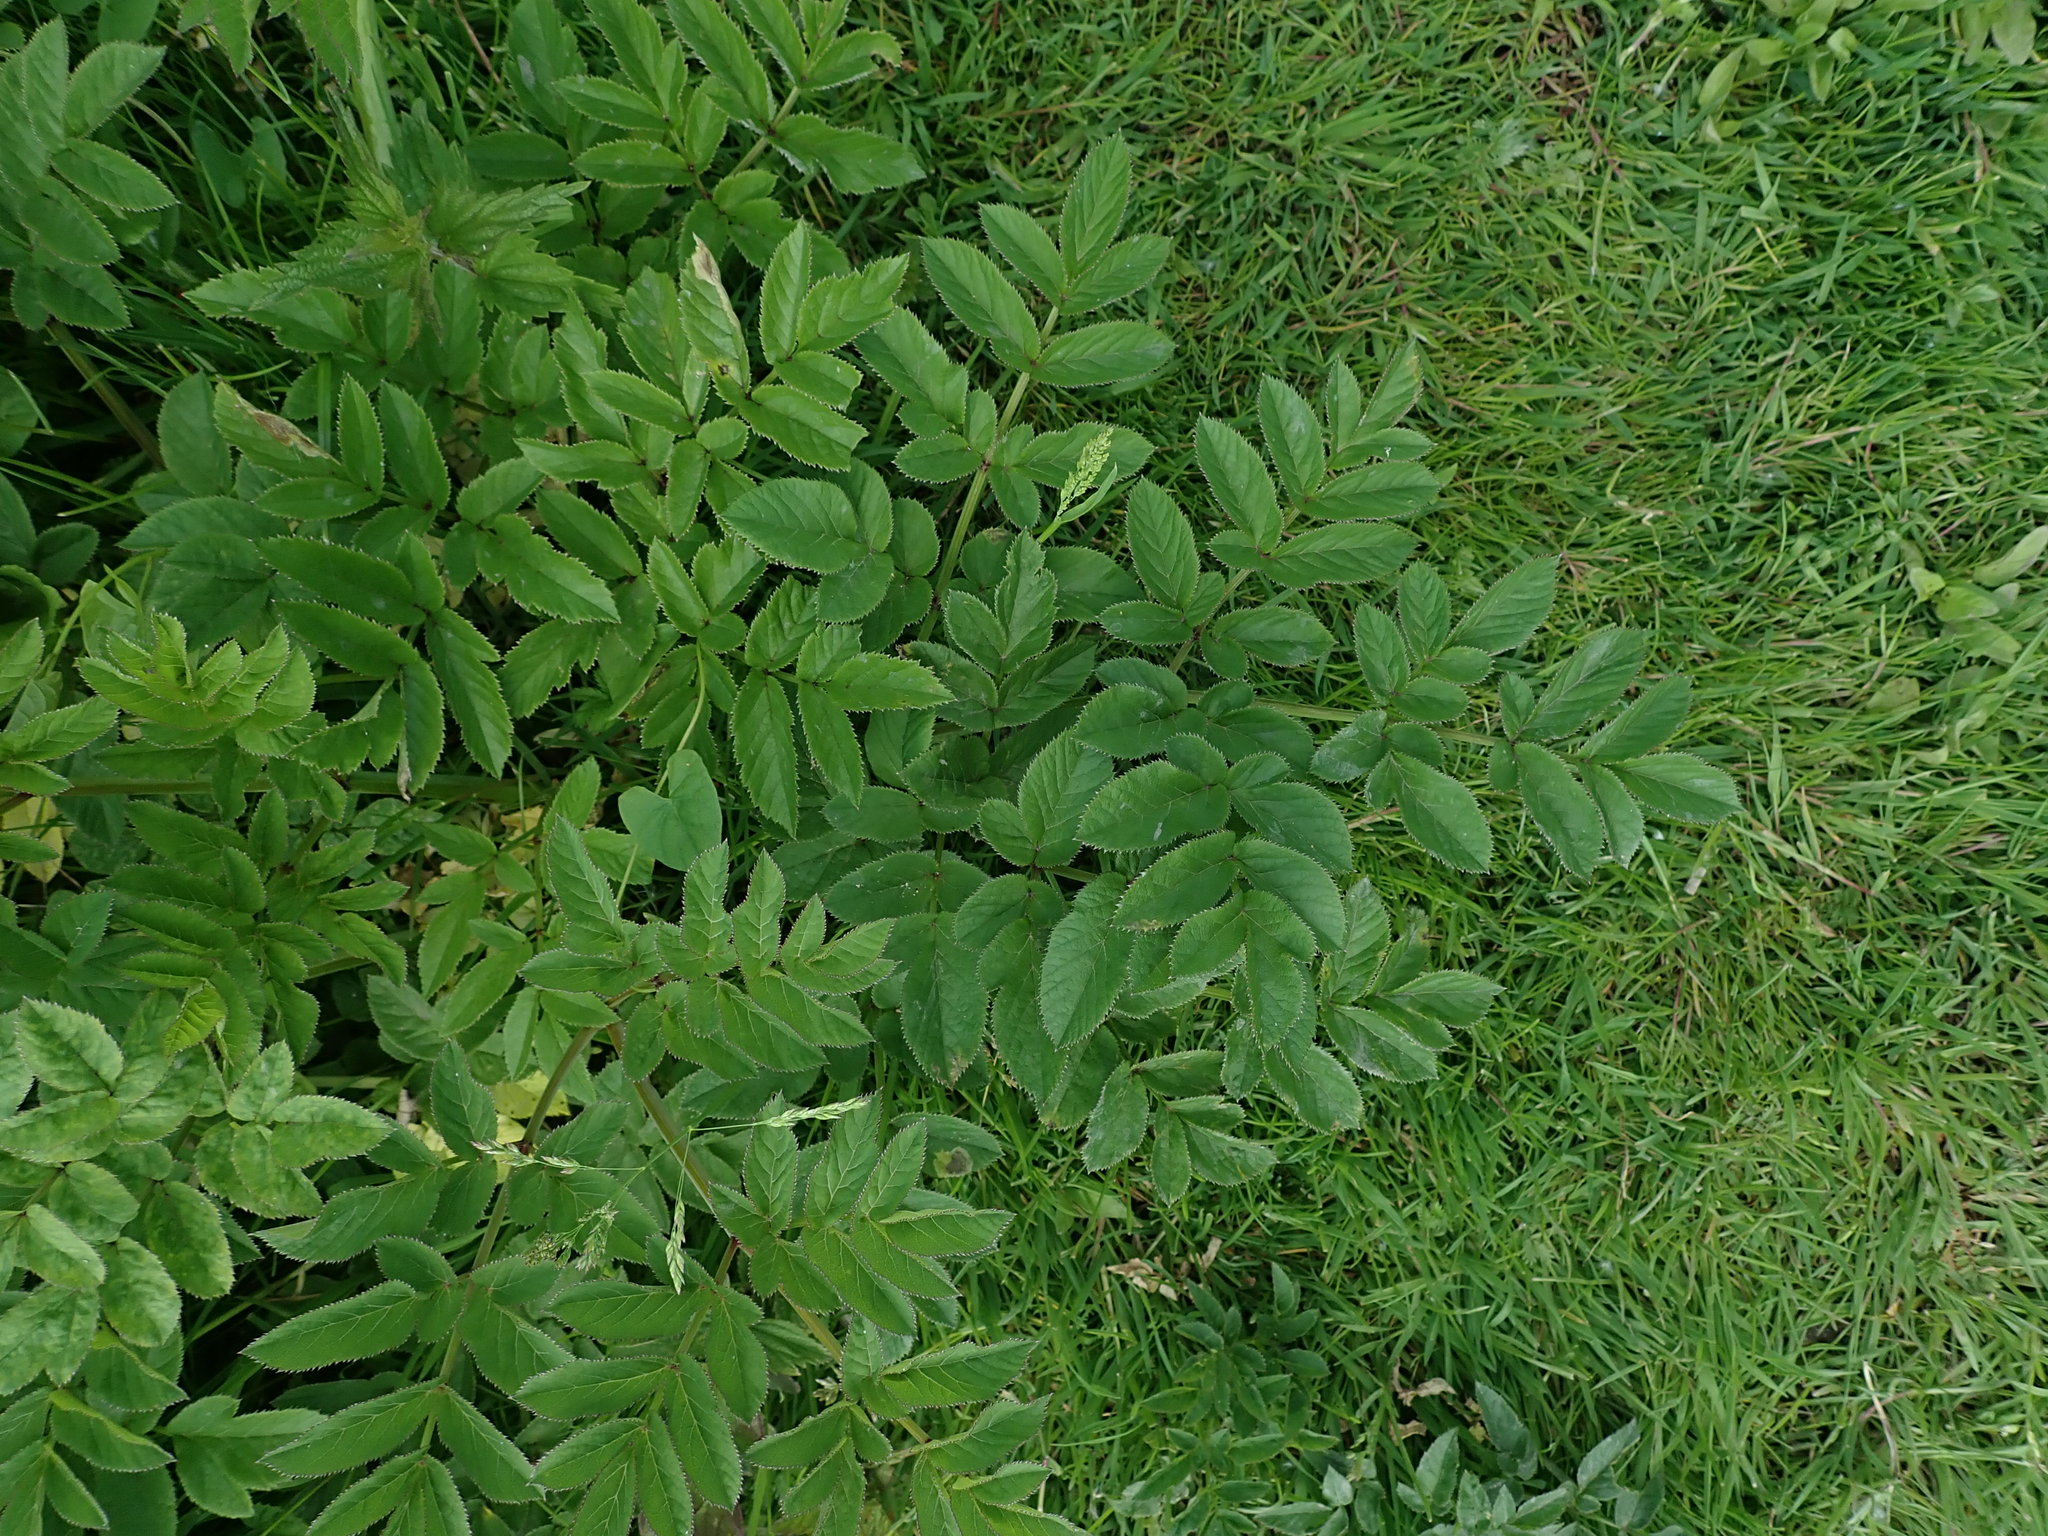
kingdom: Plantae
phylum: Tracheophyta
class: Magnoliopsida
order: Apiales
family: Apiaceae
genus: Angelica
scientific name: Angelica sylvestris
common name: Wild angelica
